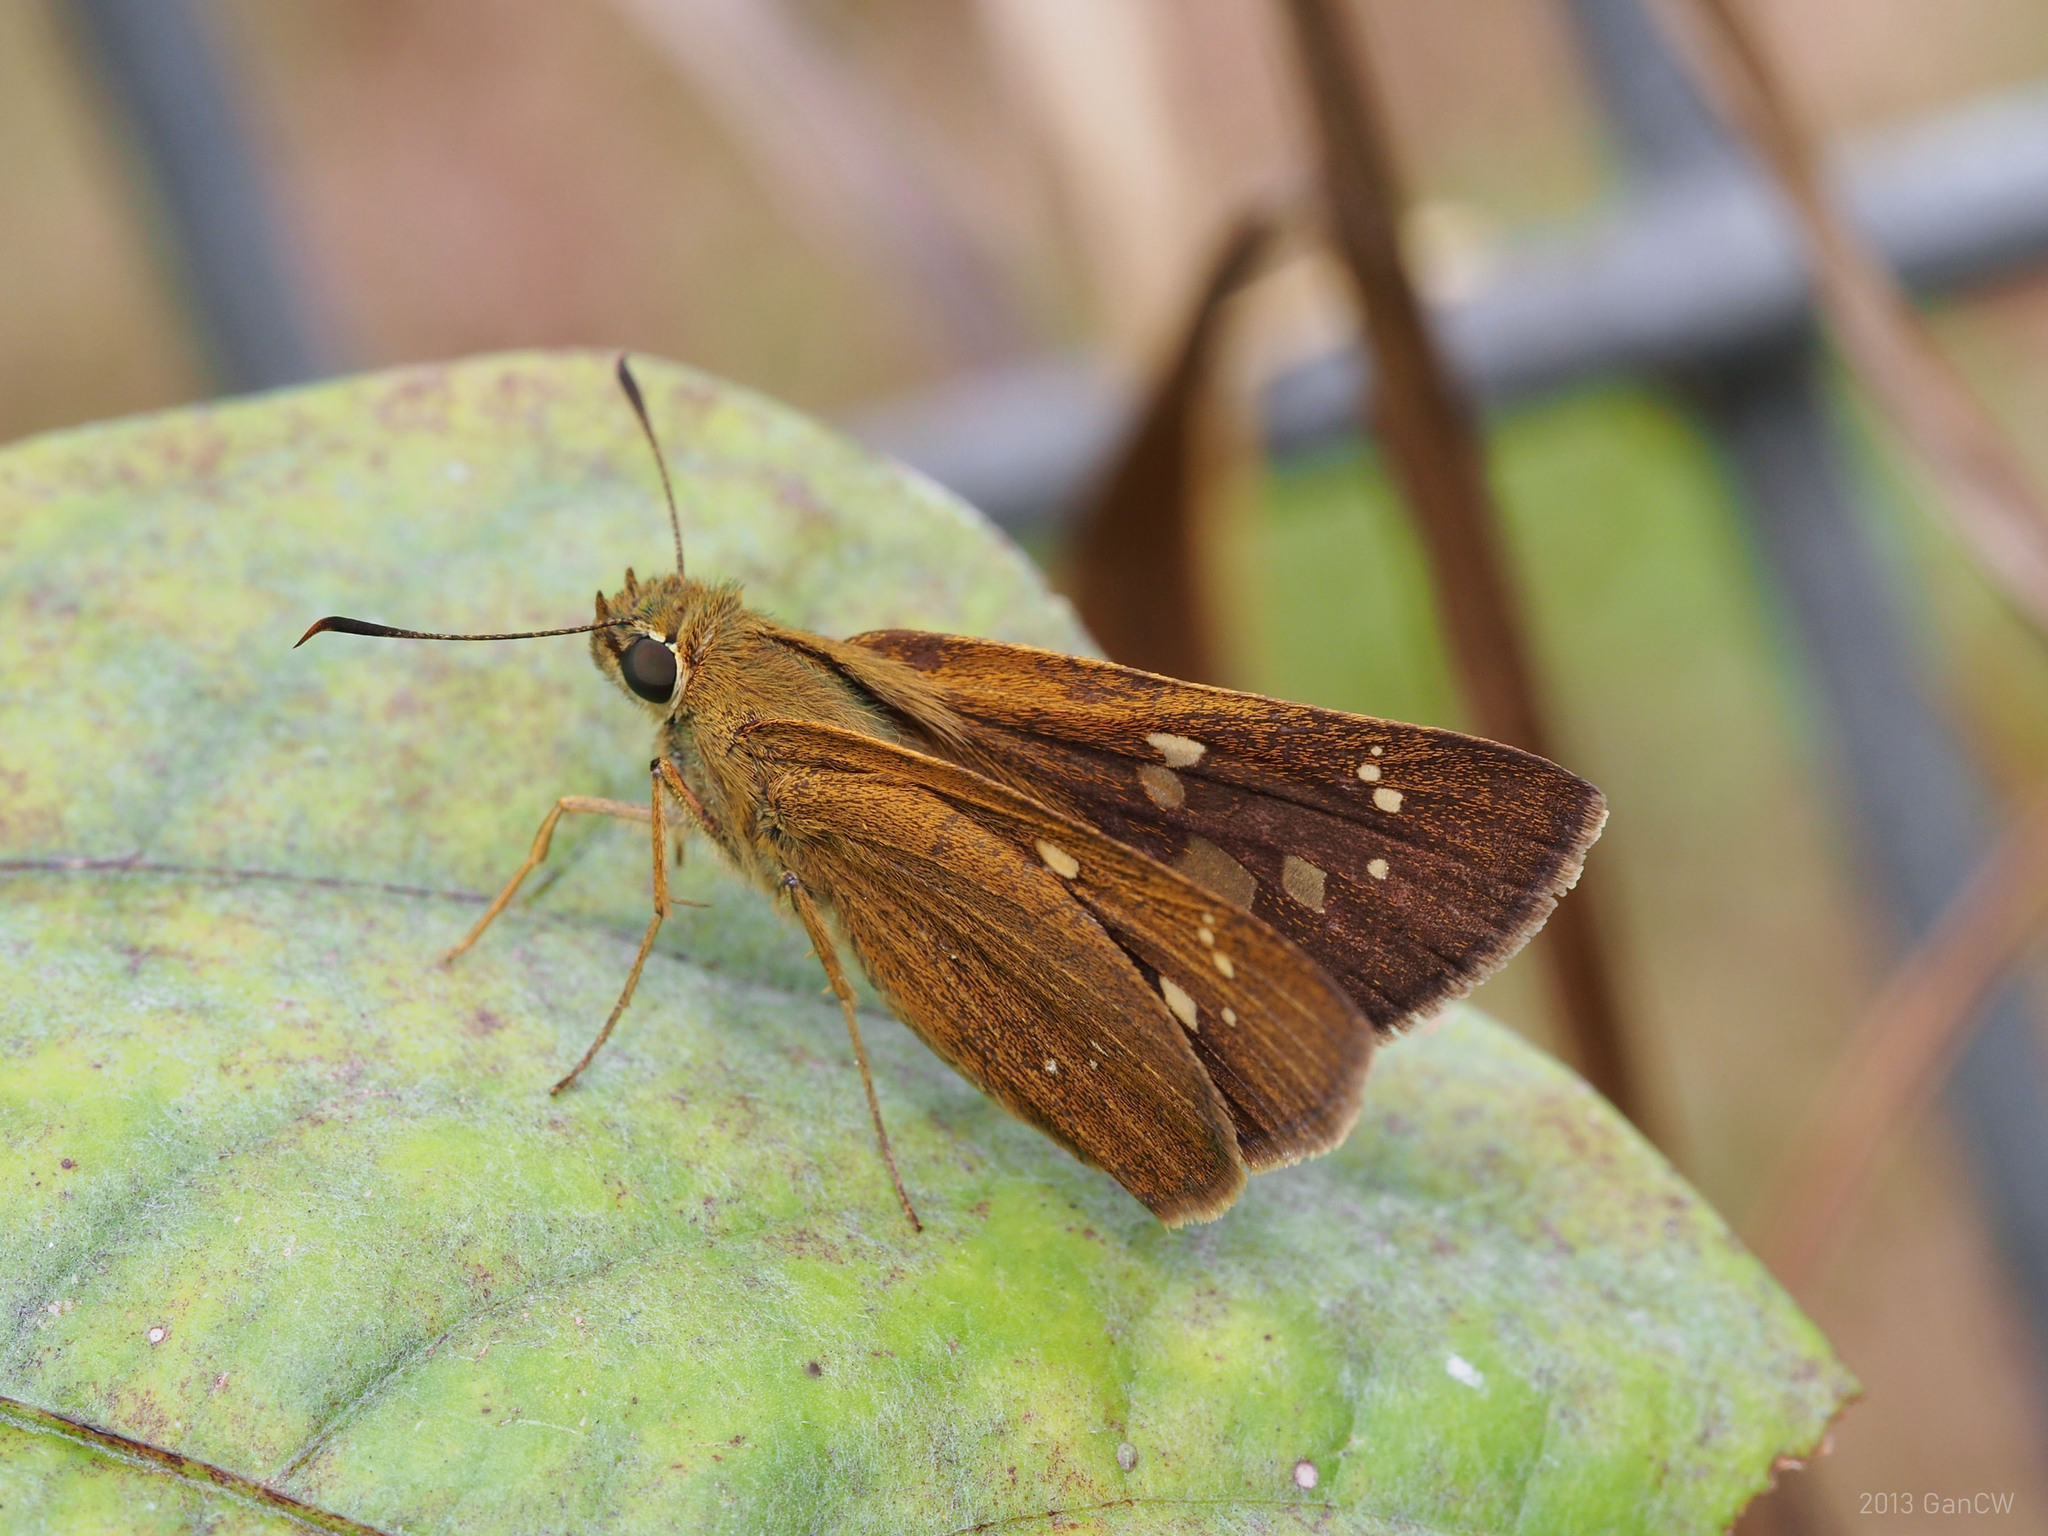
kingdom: Animalia
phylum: Arthropoda
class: Insecta
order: Lepidoptera
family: Hesperiidae
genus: Polytremis
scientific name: Polytremis lubricans
